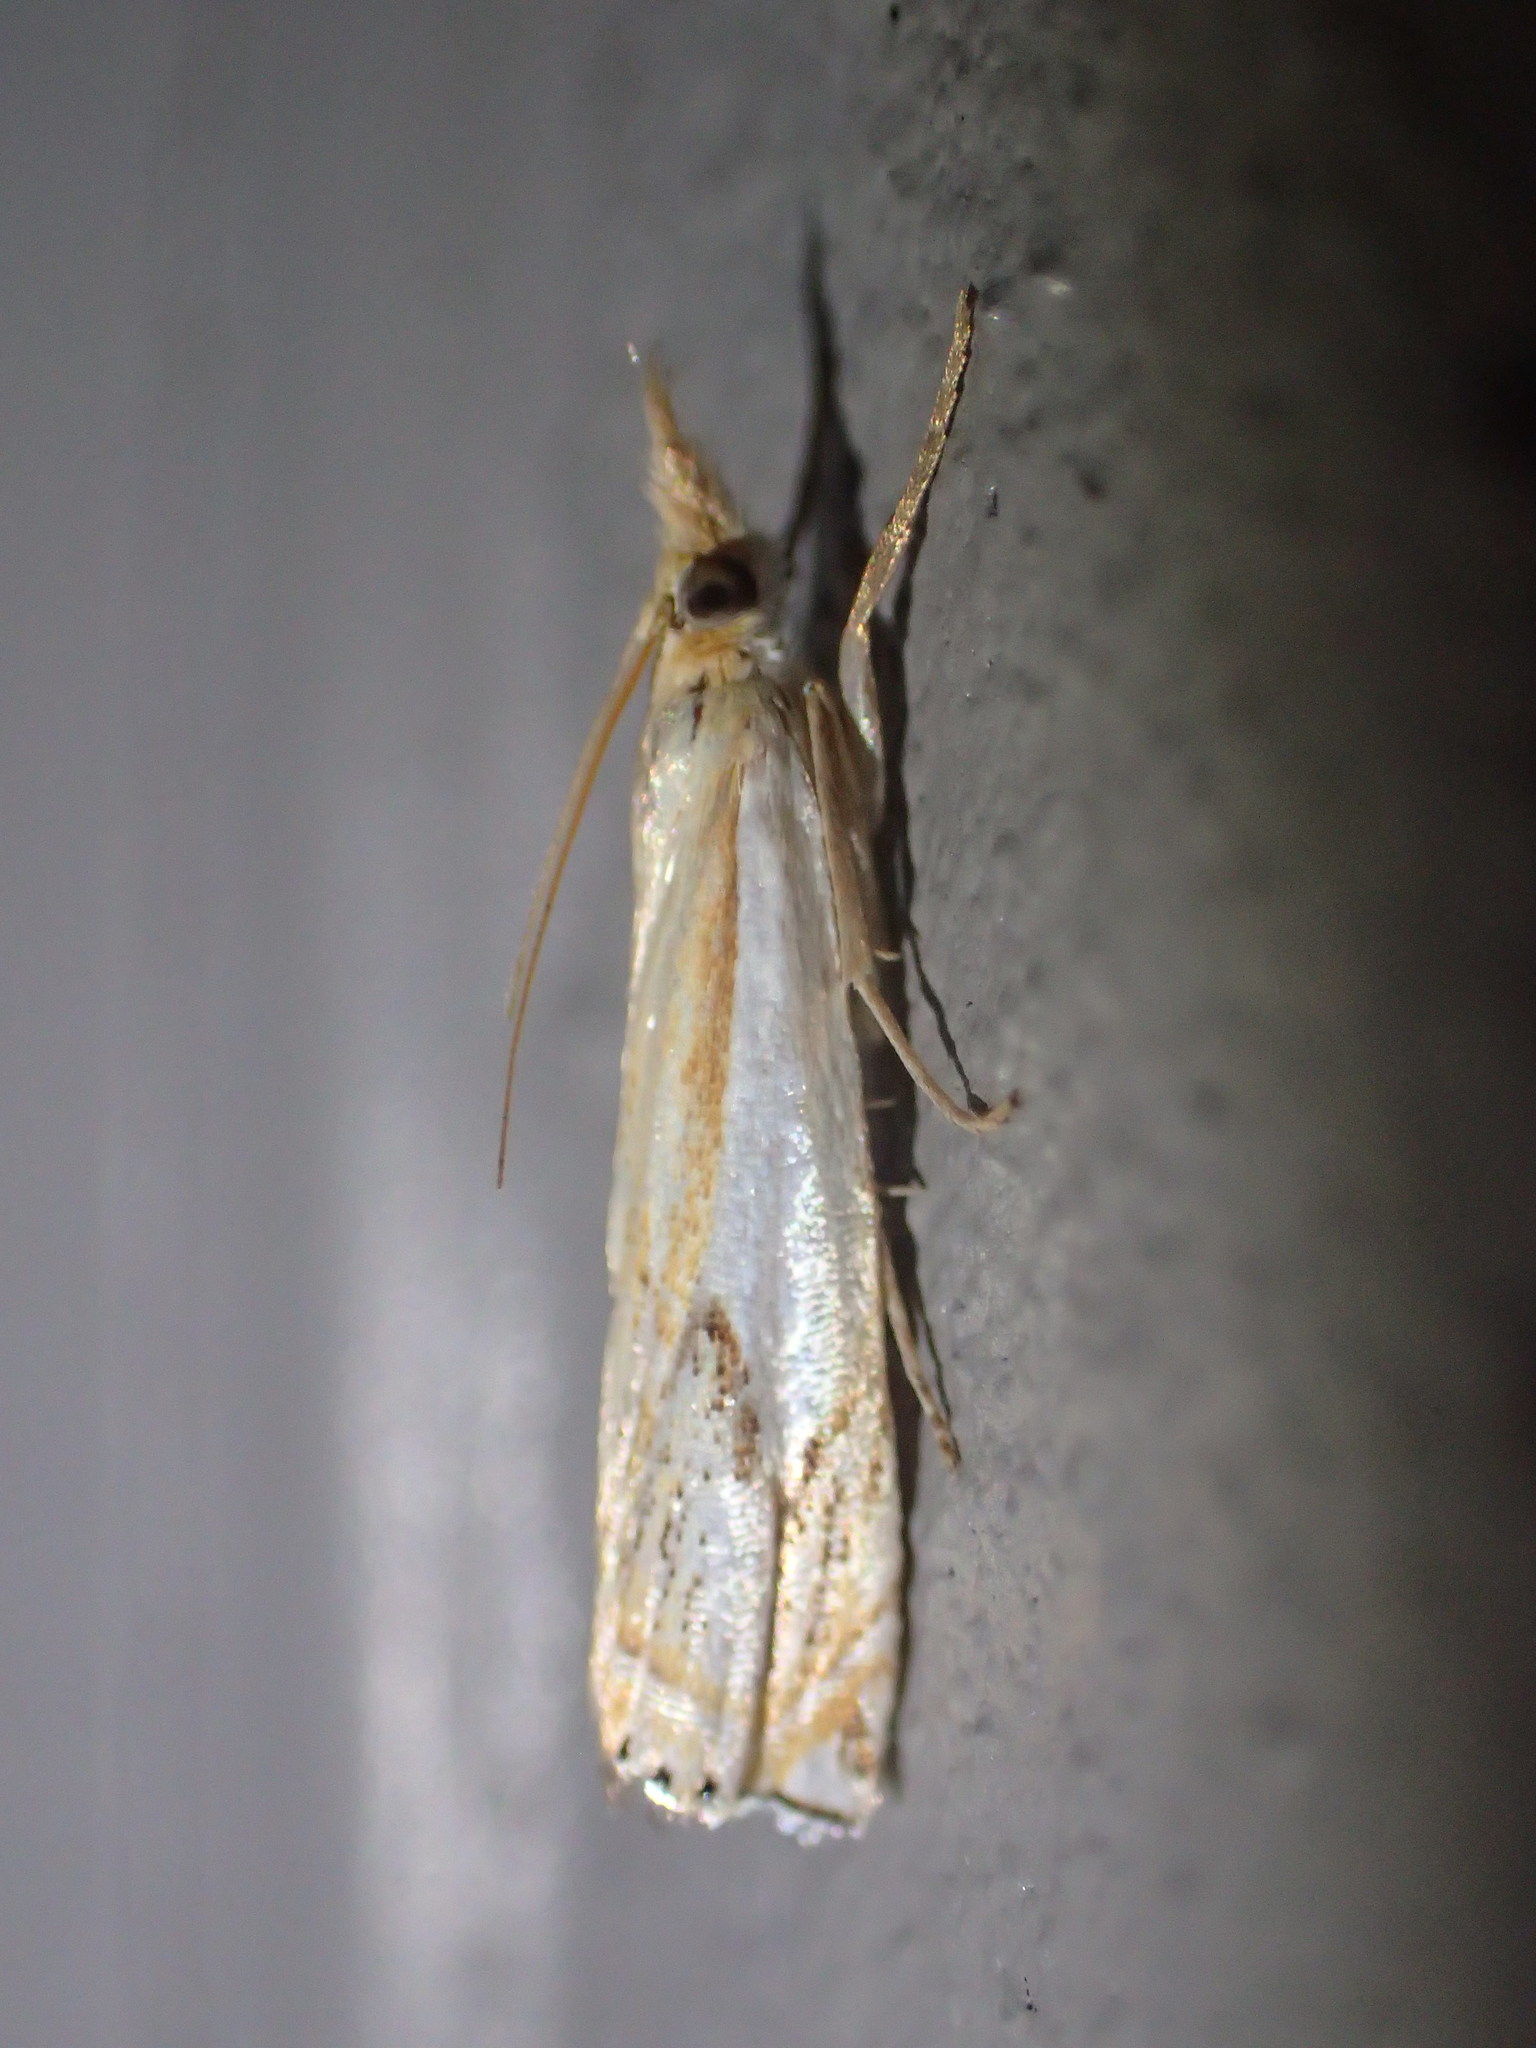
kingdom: Animalia
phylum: Arthropoda
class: Insecta
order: Lepidoptera
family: Crambidae
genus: Crambus
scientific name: Crambus agitatellus
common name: Double-banded grass-veneer
